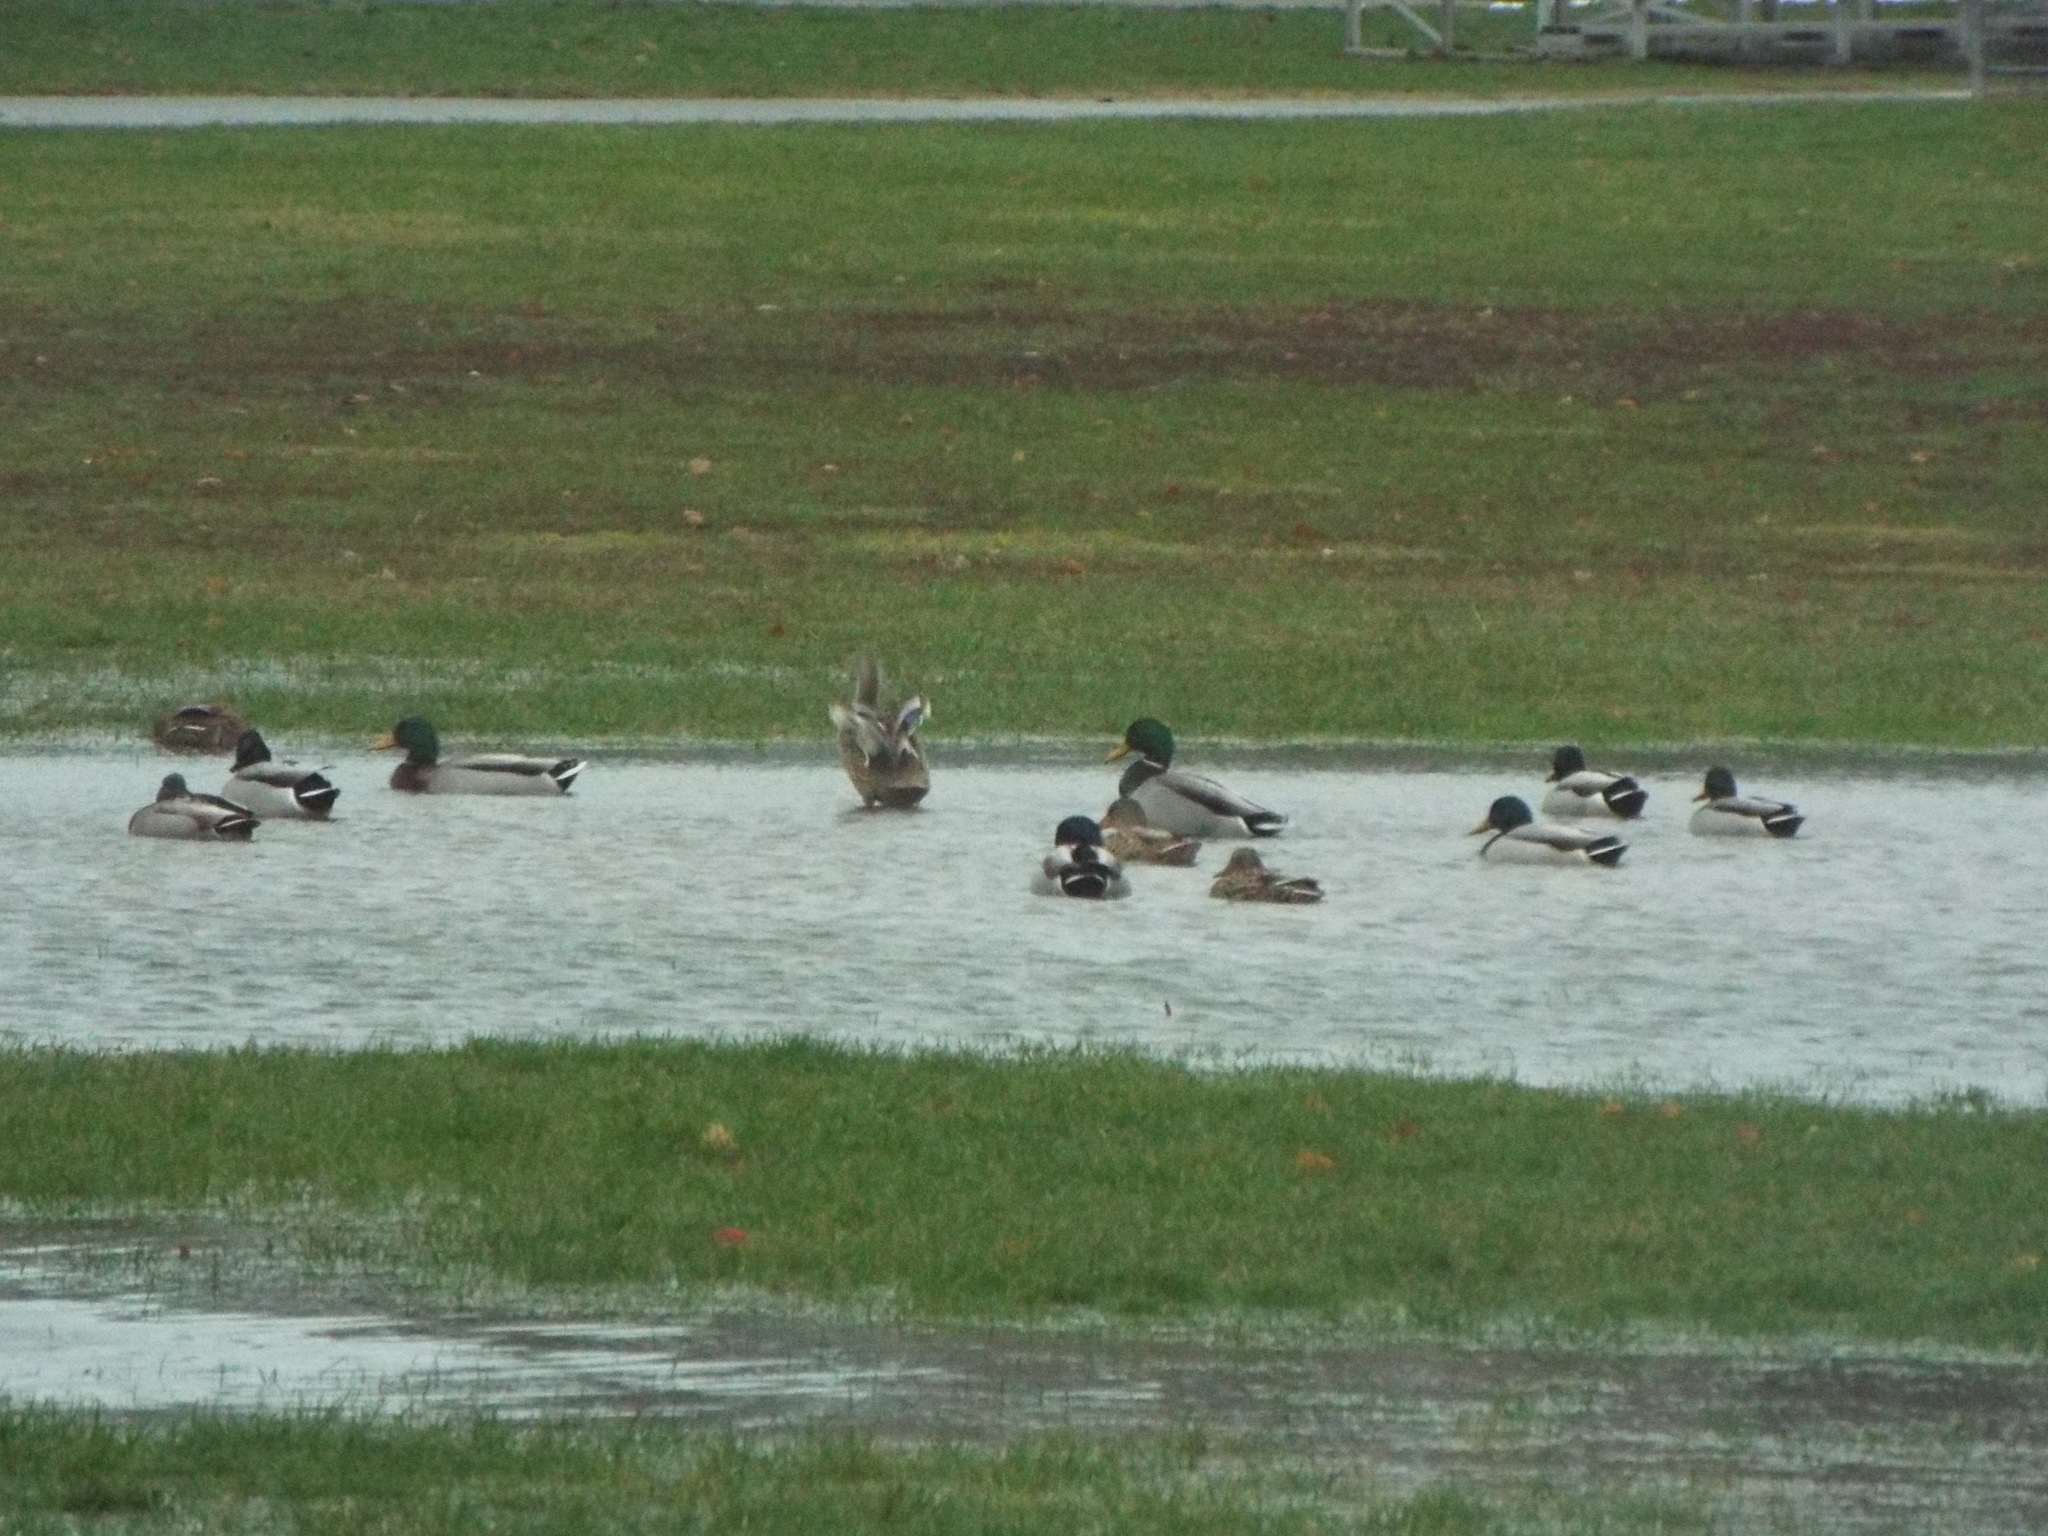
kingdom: Animalia
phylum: Chordata
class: Aves
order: Anseriformes
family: Anatidae
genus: Anas
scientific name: Anas platyrhynchos
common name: Mallard
